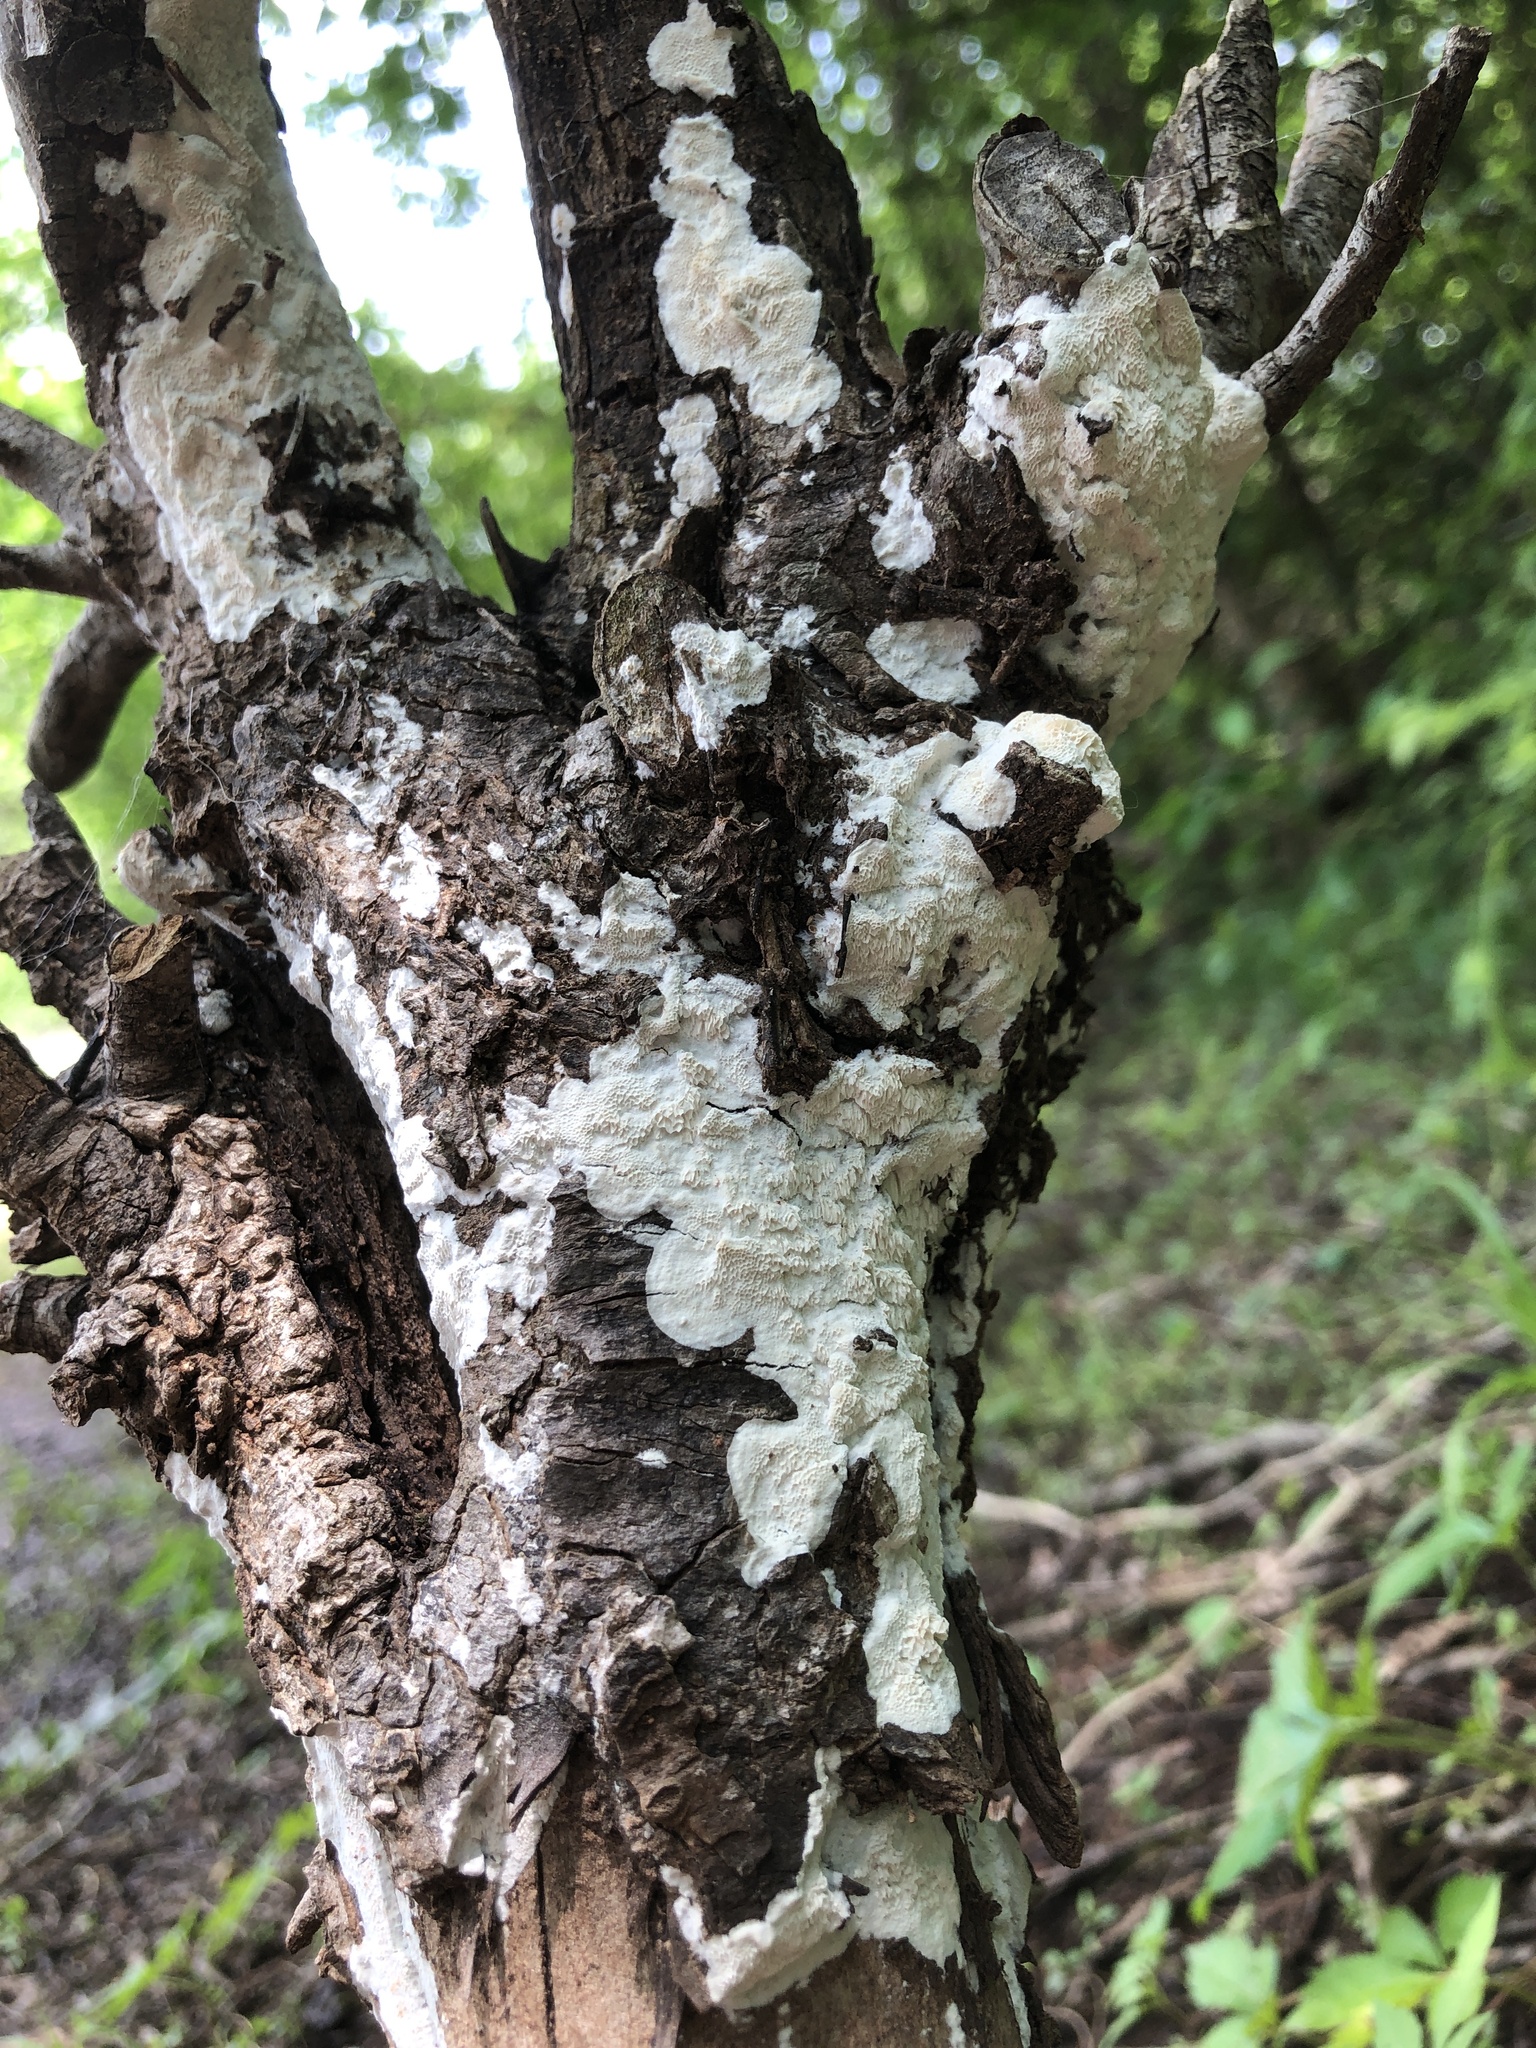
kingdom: Fungi
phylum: Basidiomycota
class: Agaricomycetes
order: Polyporales
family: Irpicaceae
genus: Irpex
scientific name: Irpex lacteus
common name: Milk-white toothed polypore
